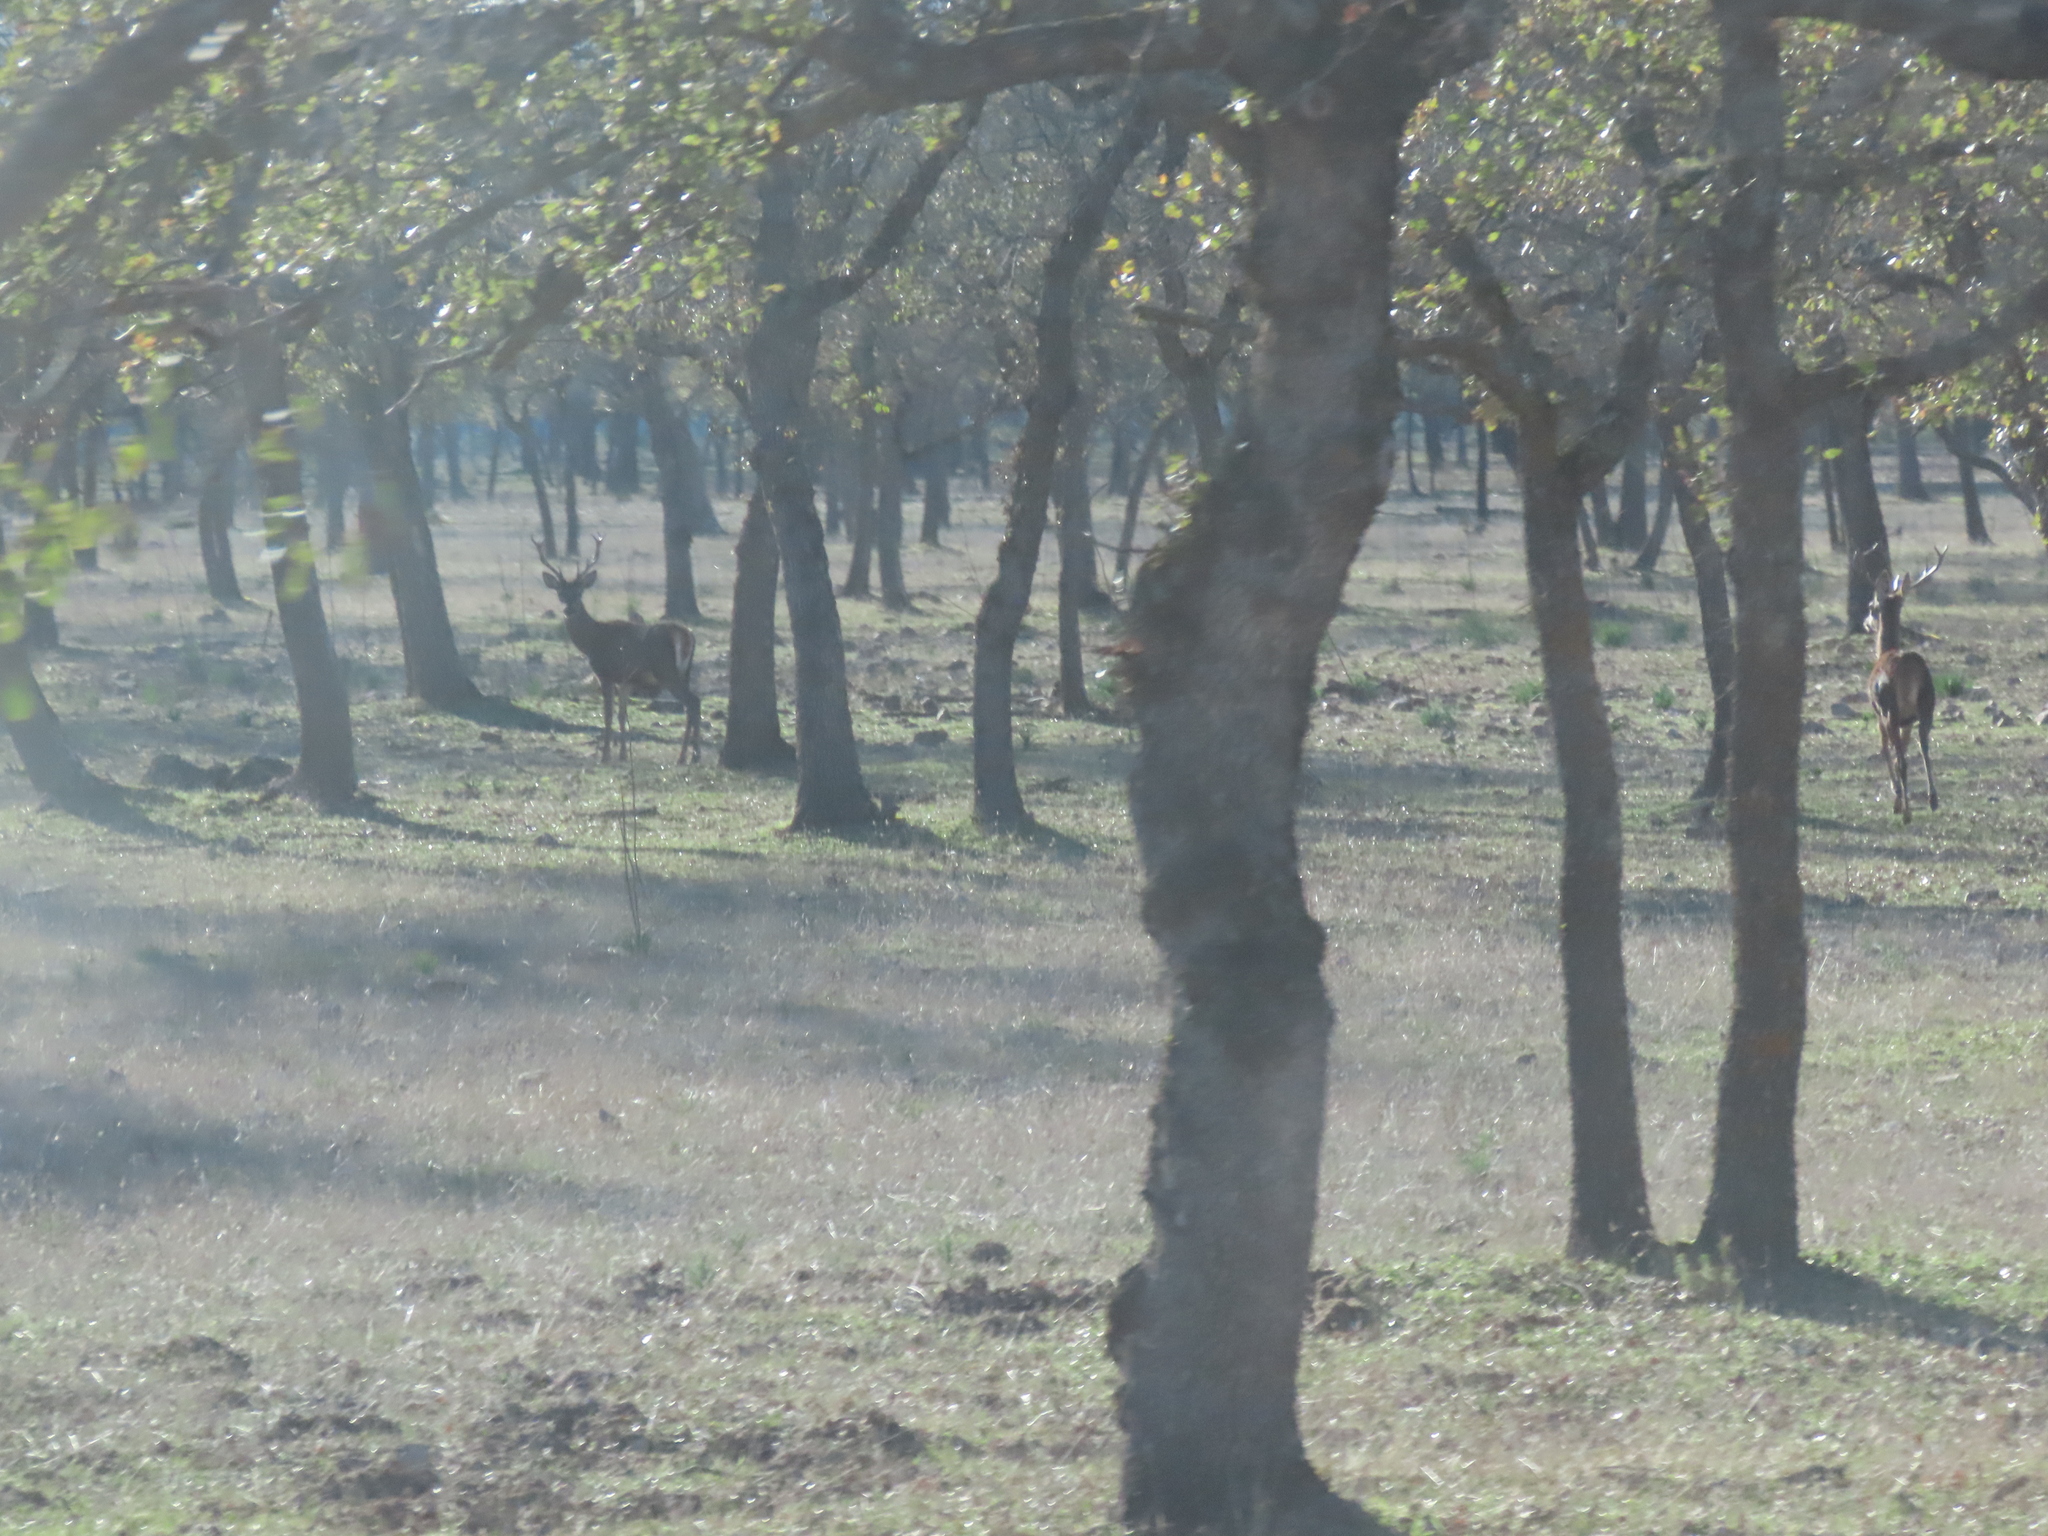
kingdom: Animalia
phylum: Chordata
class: Mammalia
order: Artiodactyla
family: Cervidae
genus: Cervus
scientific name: Cervus elaphus
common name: Red deer
